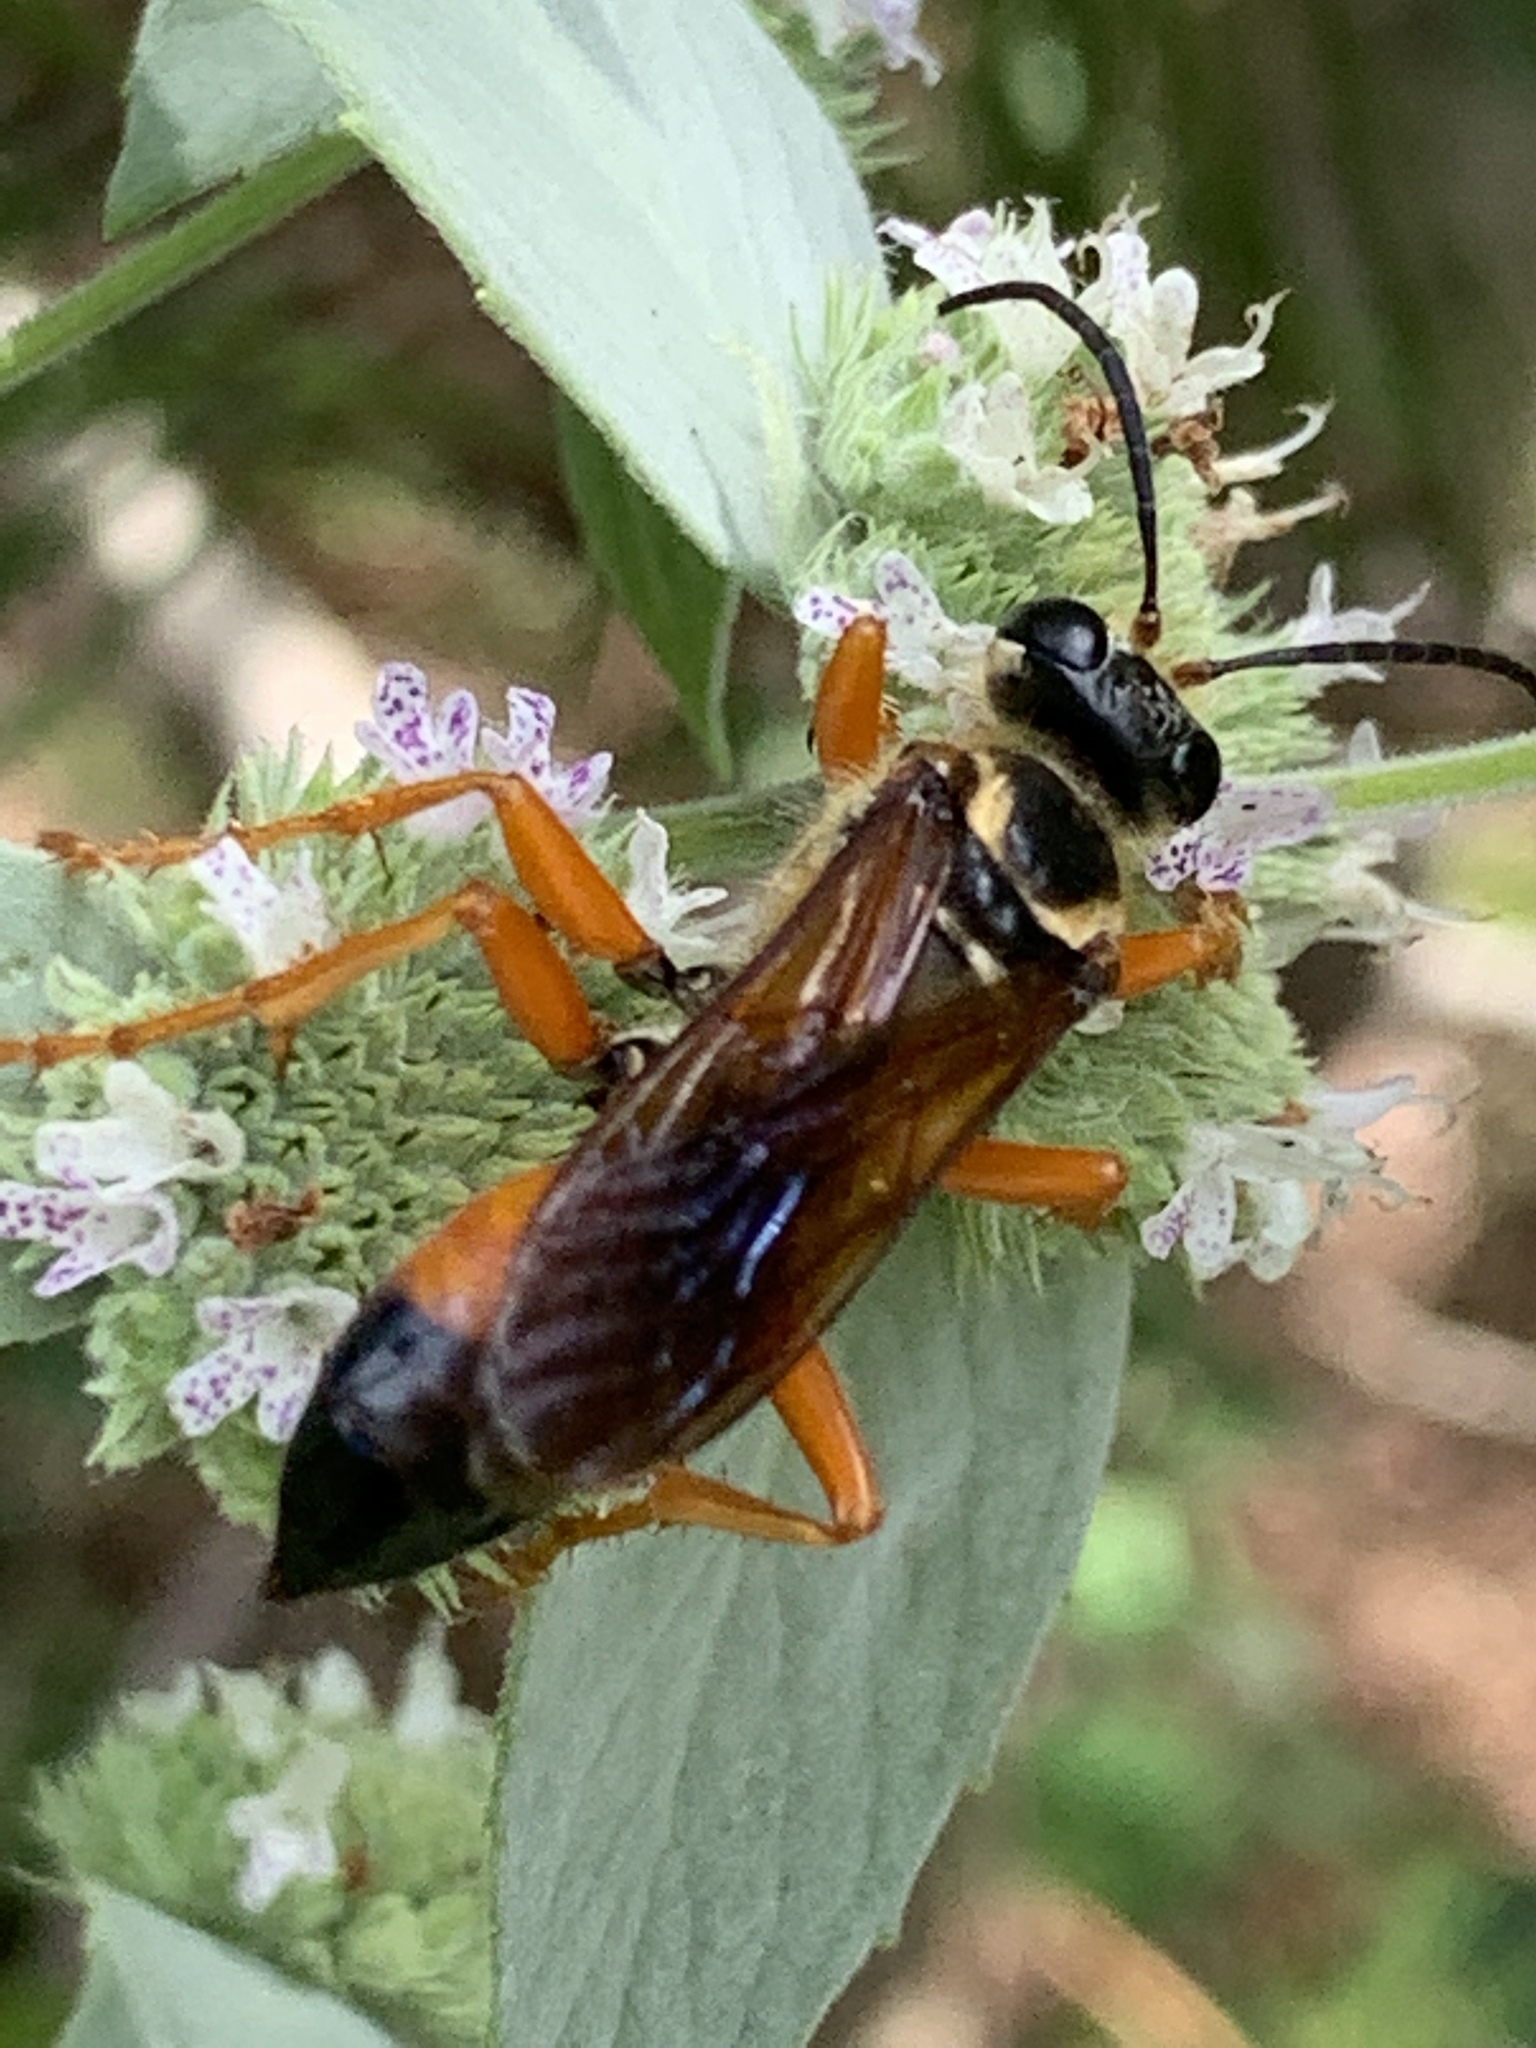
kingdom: Animalia
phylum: Arthropoda
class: Insecta
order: Hymenoptera
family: Sphecidae
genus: Sphex
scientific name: Sphex ichneumoneus
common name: Great golden digger wasp
